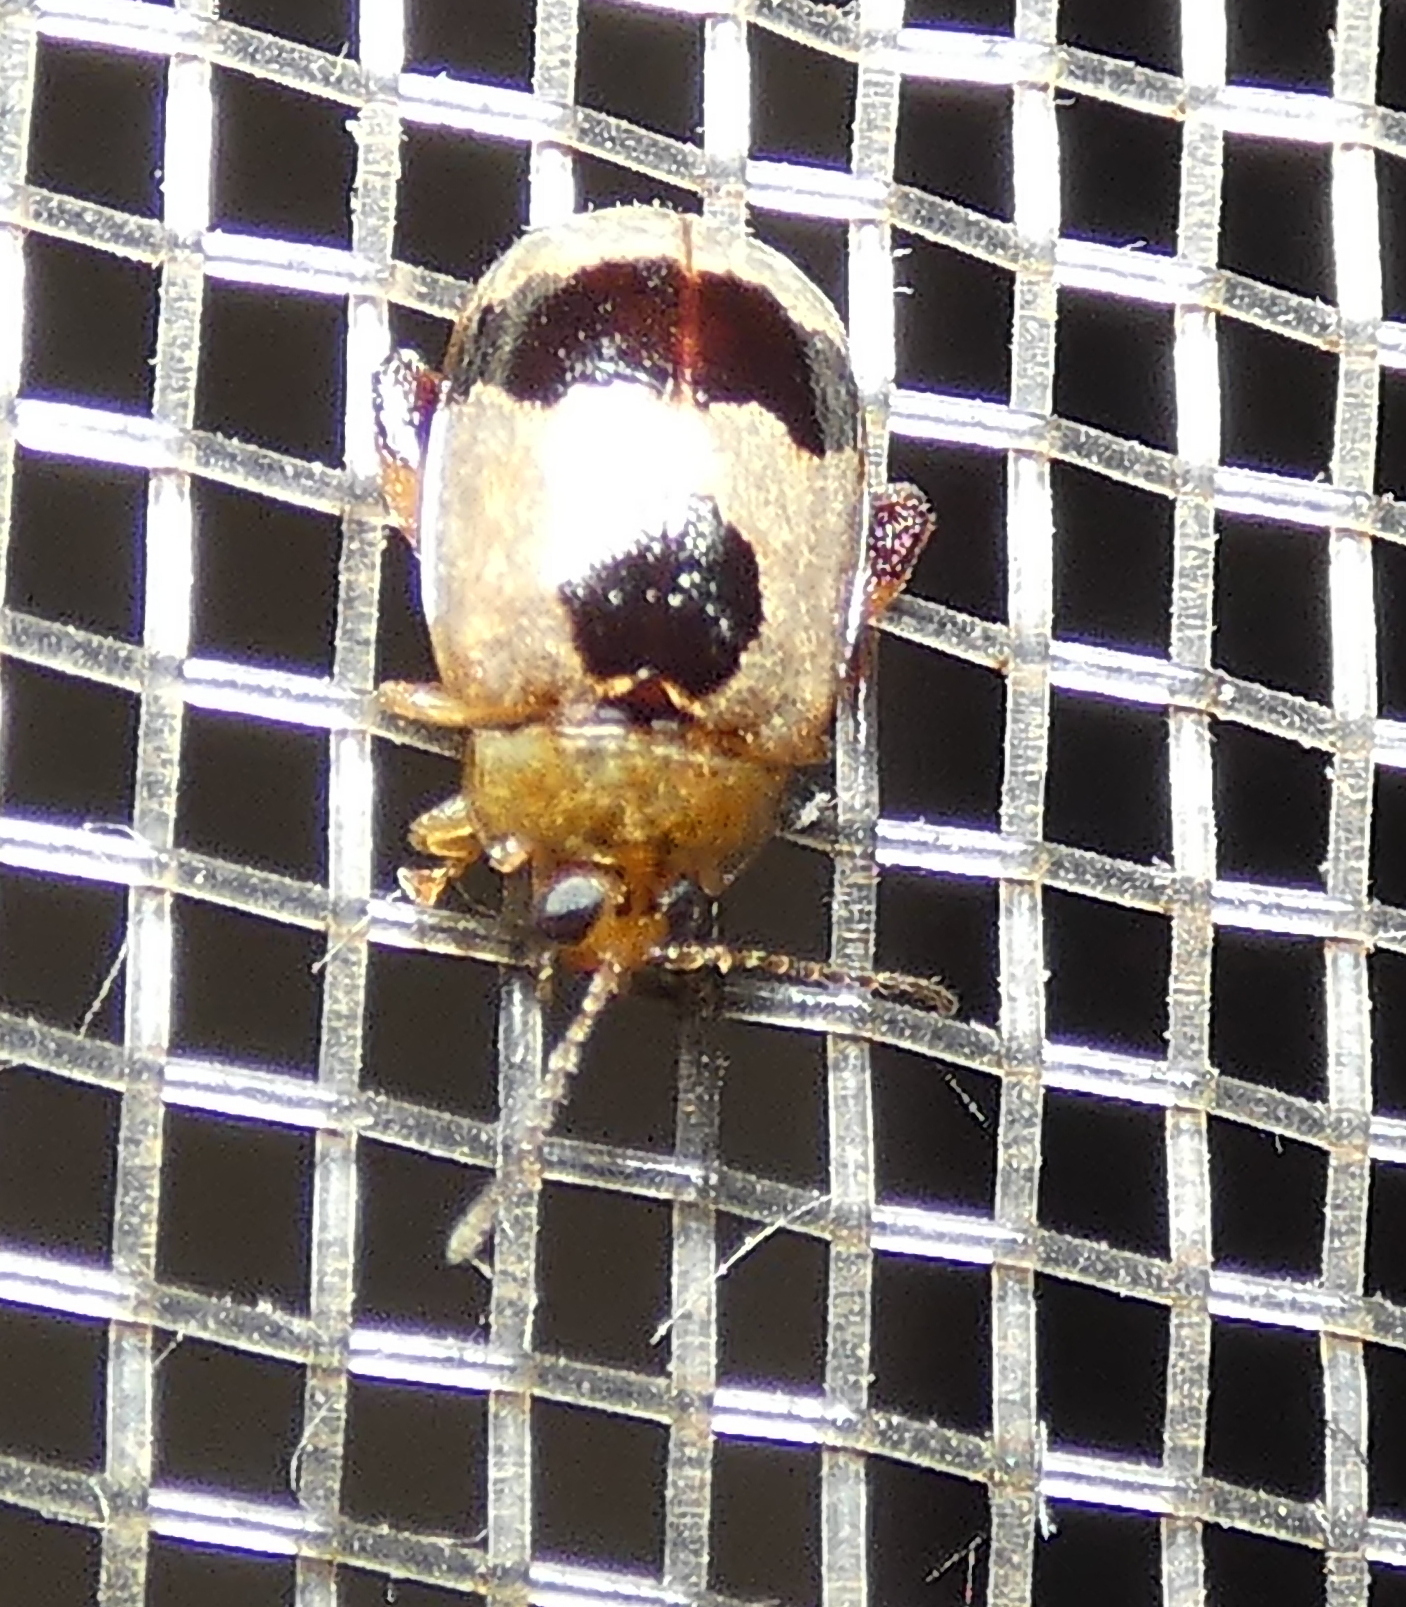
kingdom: Animalia
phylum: Arthropoda
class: Insecta
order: Coleoptera
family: Chrysomelidae
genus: Alagoasa
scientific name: Alagoasa
